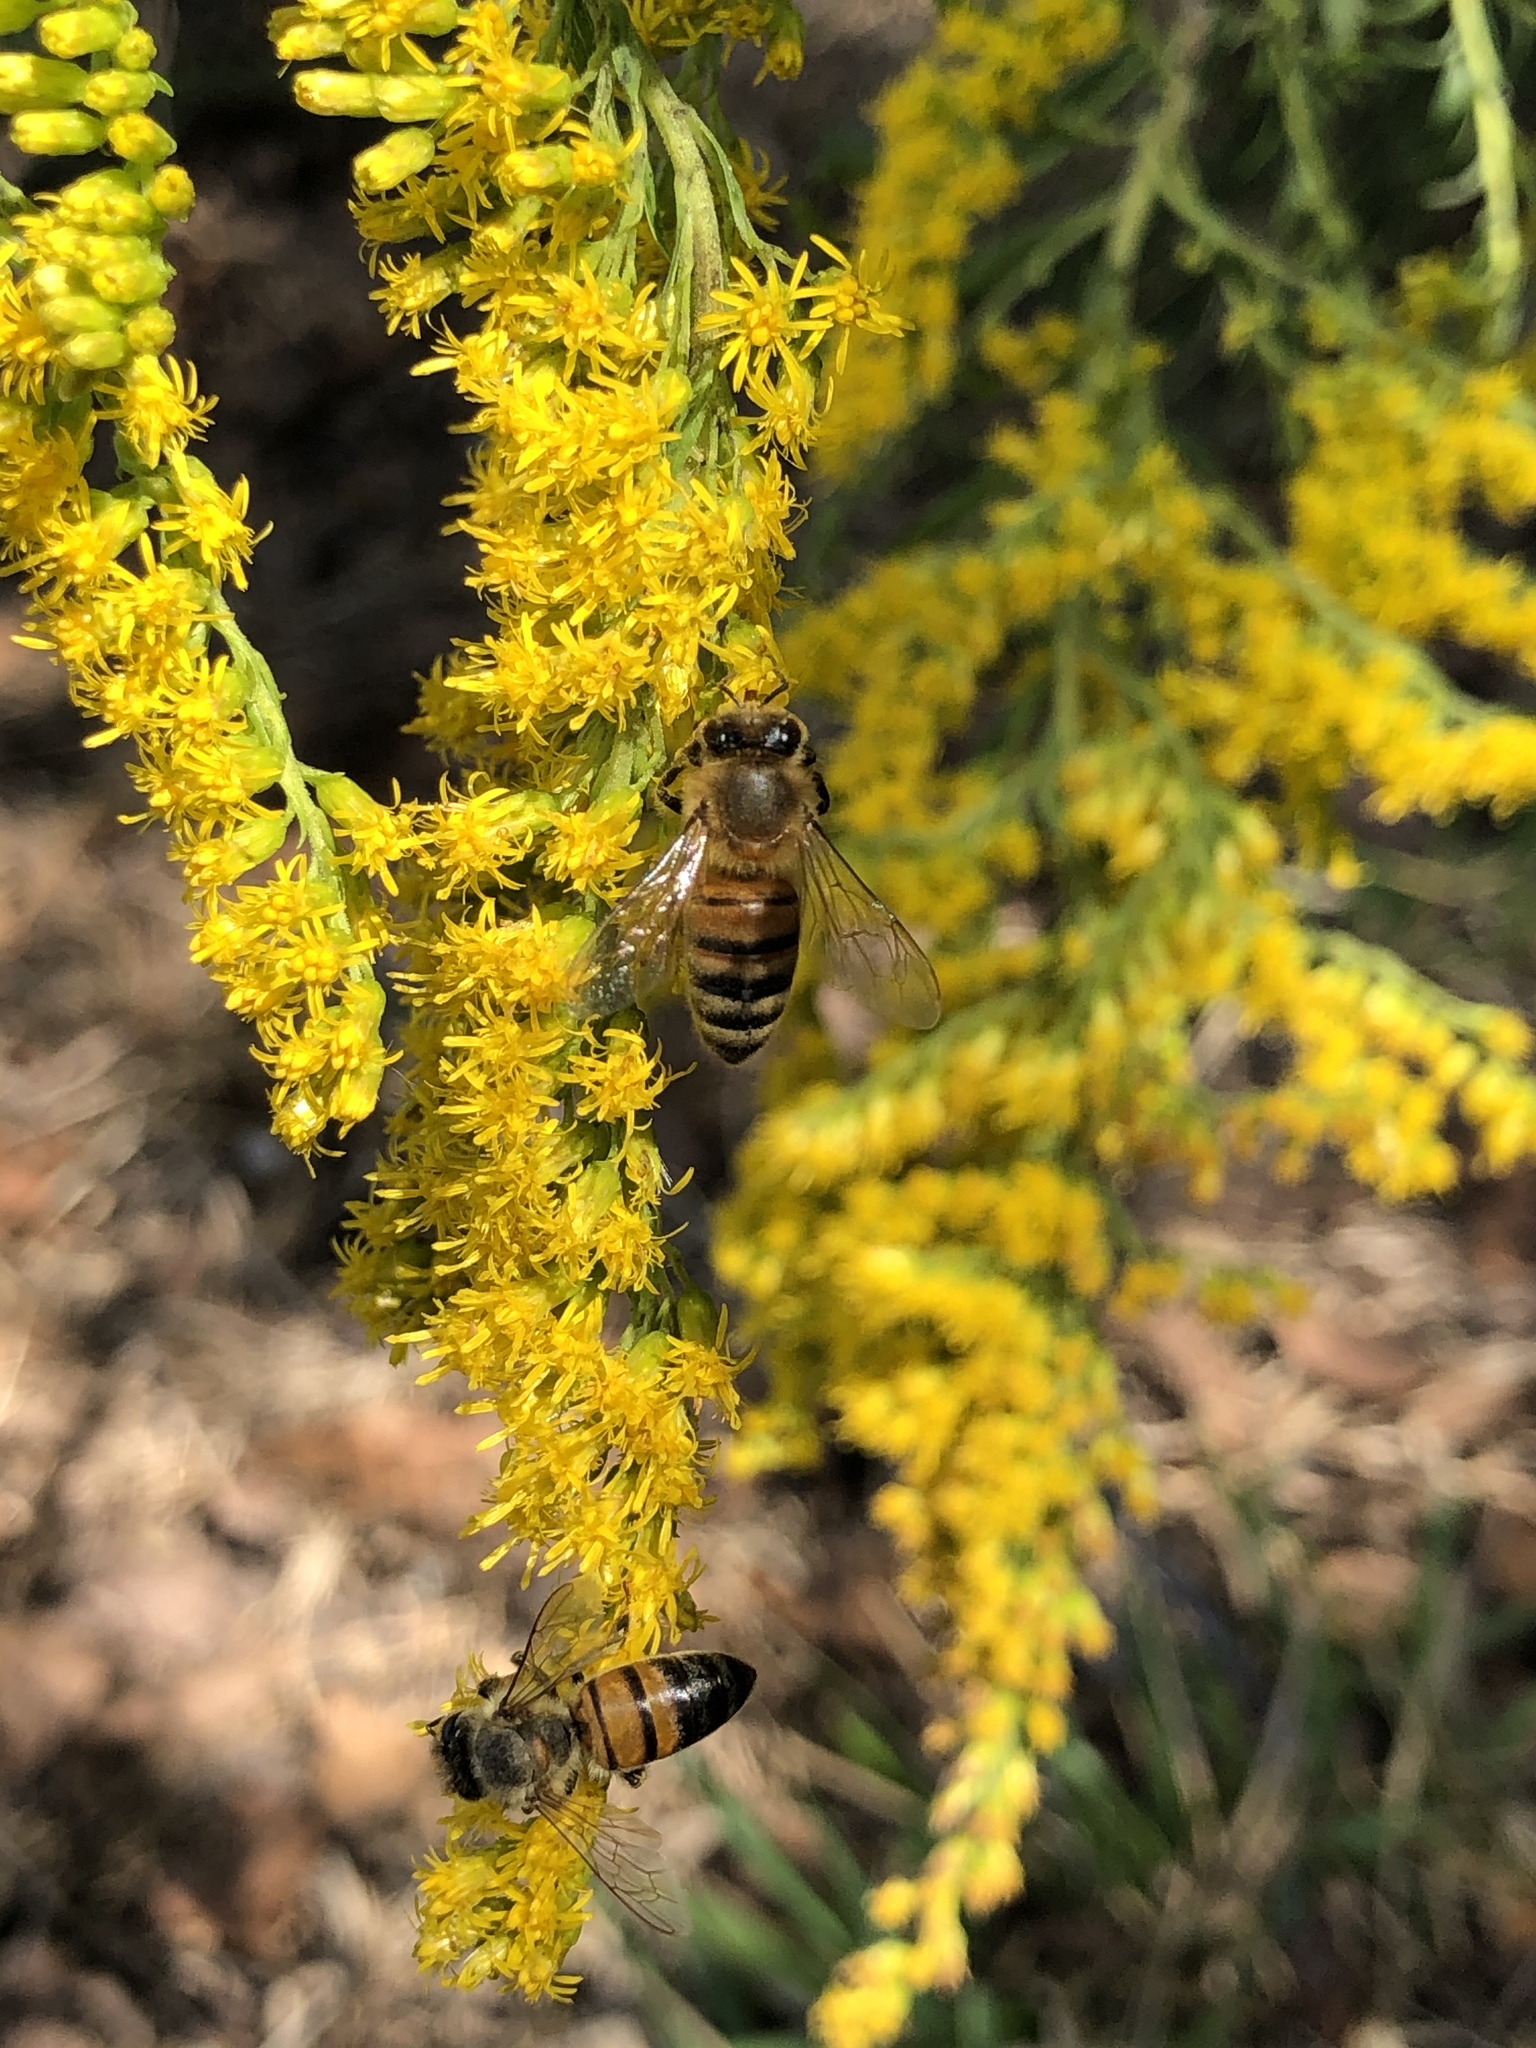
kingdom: Animalia
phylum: Arthropoda
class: Insecta
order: Hymenoptera
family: Apidae
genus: Apis
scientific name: Apis mellifera
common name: Honey bee
